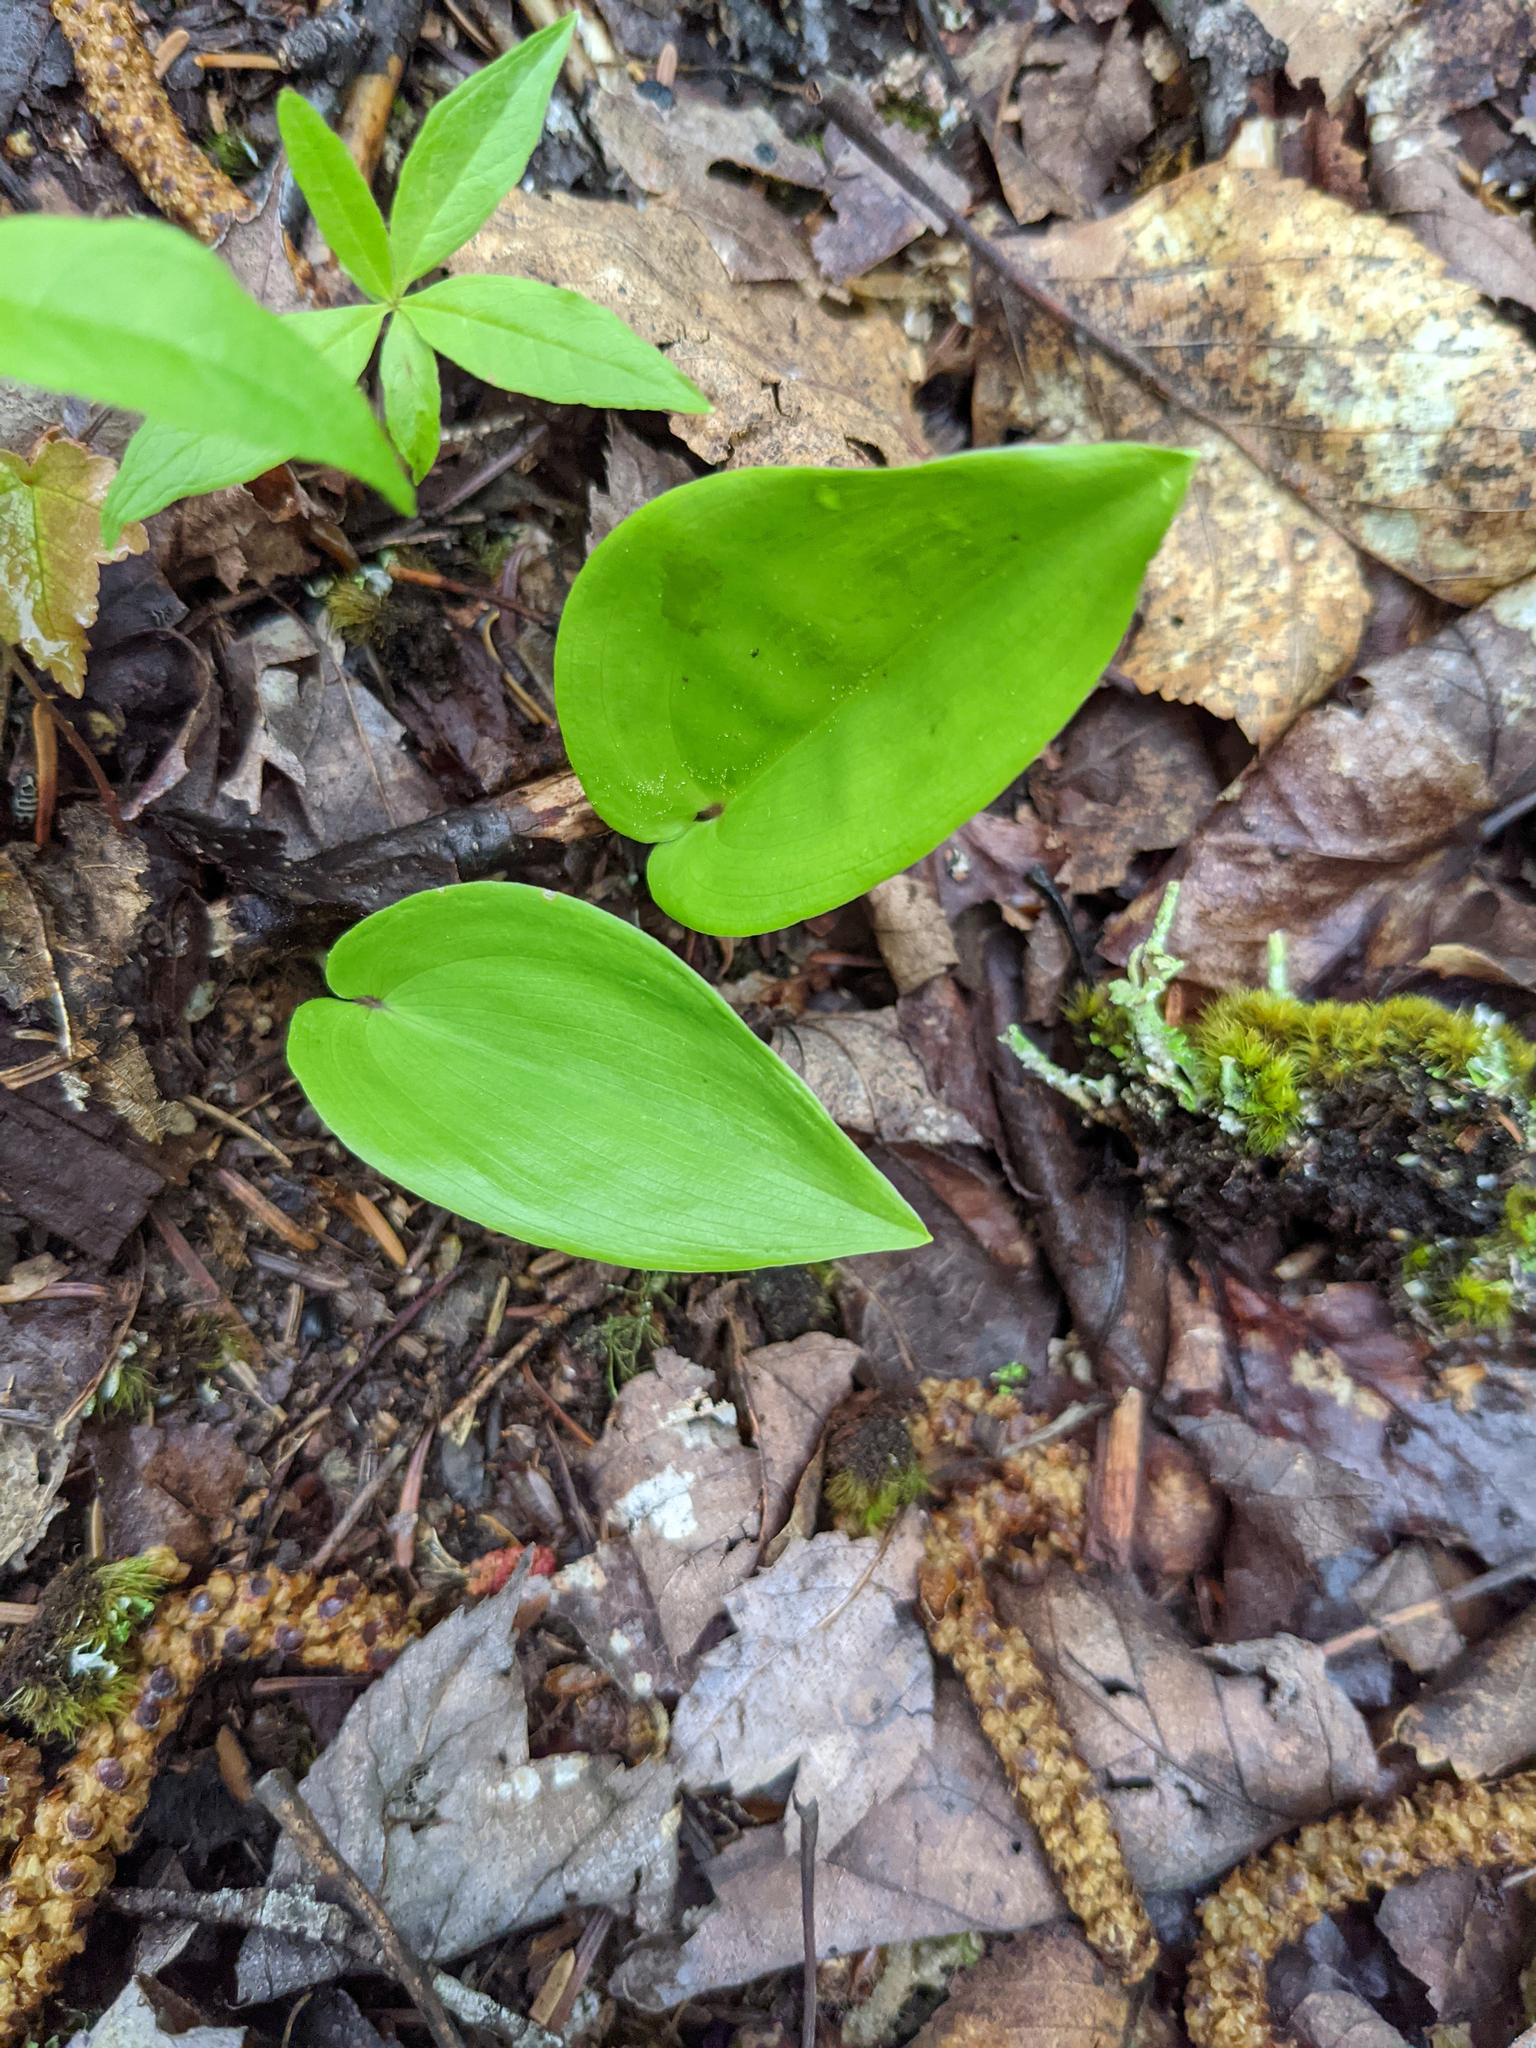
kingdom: Plantae
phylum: Tracheophyta
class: Liliopsida
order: Asparagales
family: Asparagaceae
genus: Maianthemum
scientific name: Maianthemum canadense
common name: False lily-of-the-valley
